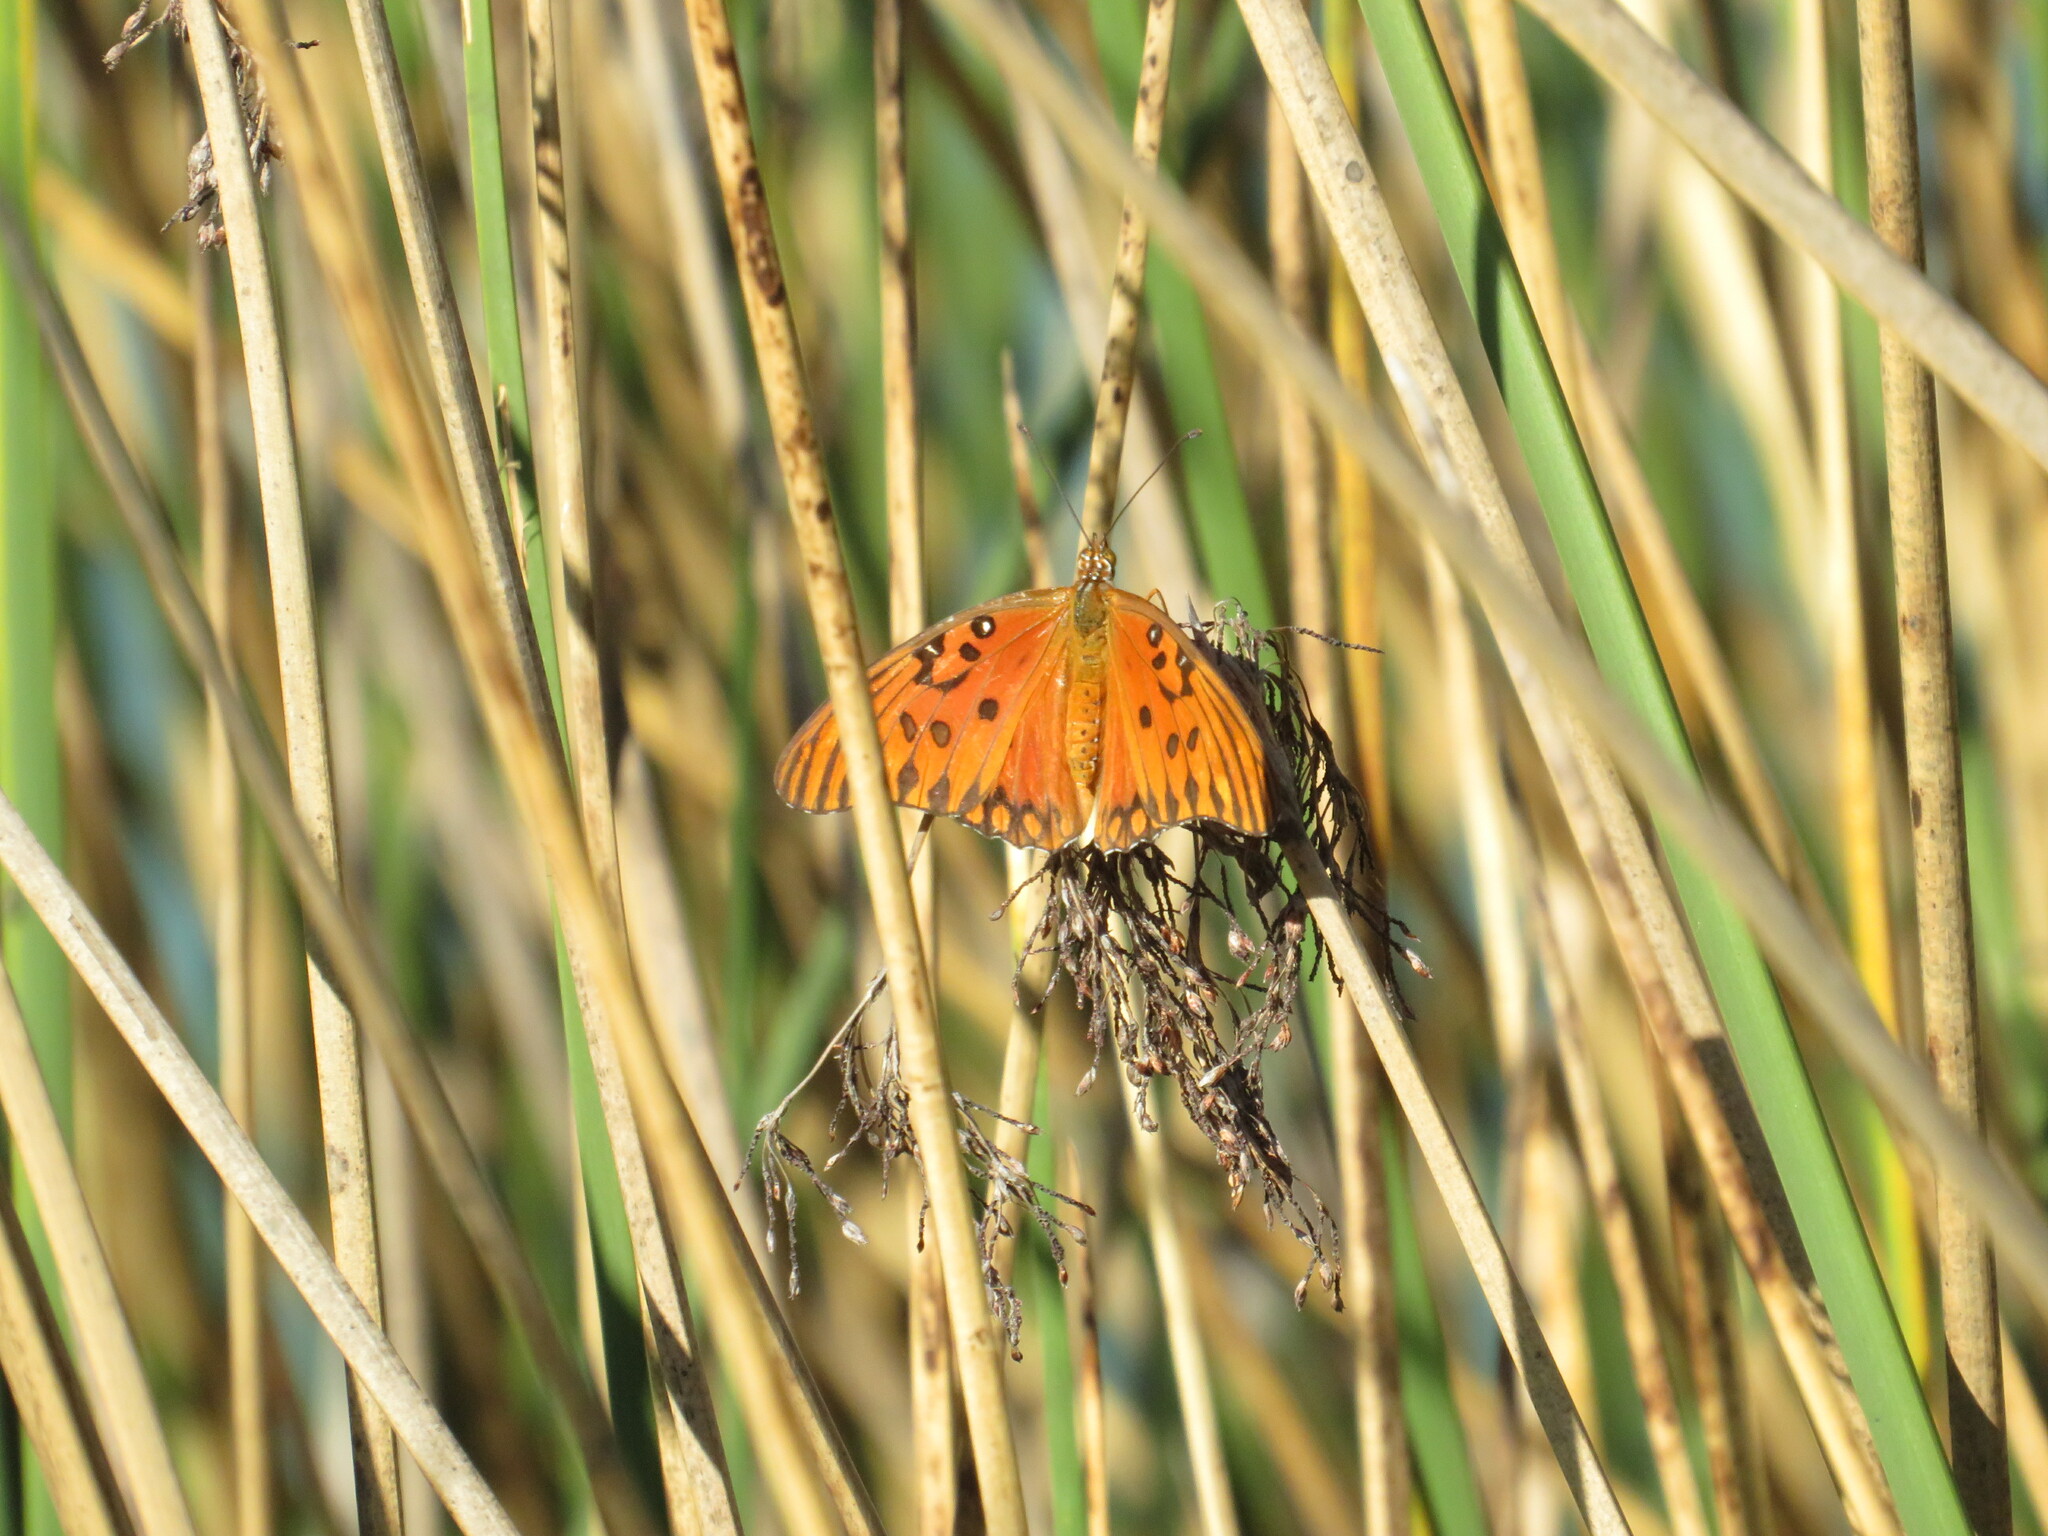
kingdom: Animalia
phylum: Arthropoda
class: Insecta
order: Lepidoptera
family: Nymphalidae
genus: Dione
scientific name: Dione vanillae
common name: Gulf fritillary
